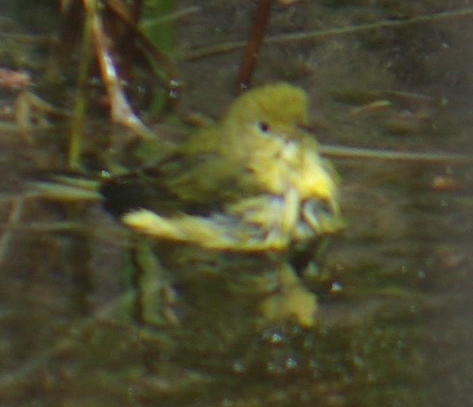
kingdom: Animalia
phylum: Chordata
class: Aves
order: Passeriformes
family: Parulidae
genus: Setophaga
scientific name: Setophaga petechia
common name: Yellow warbler
